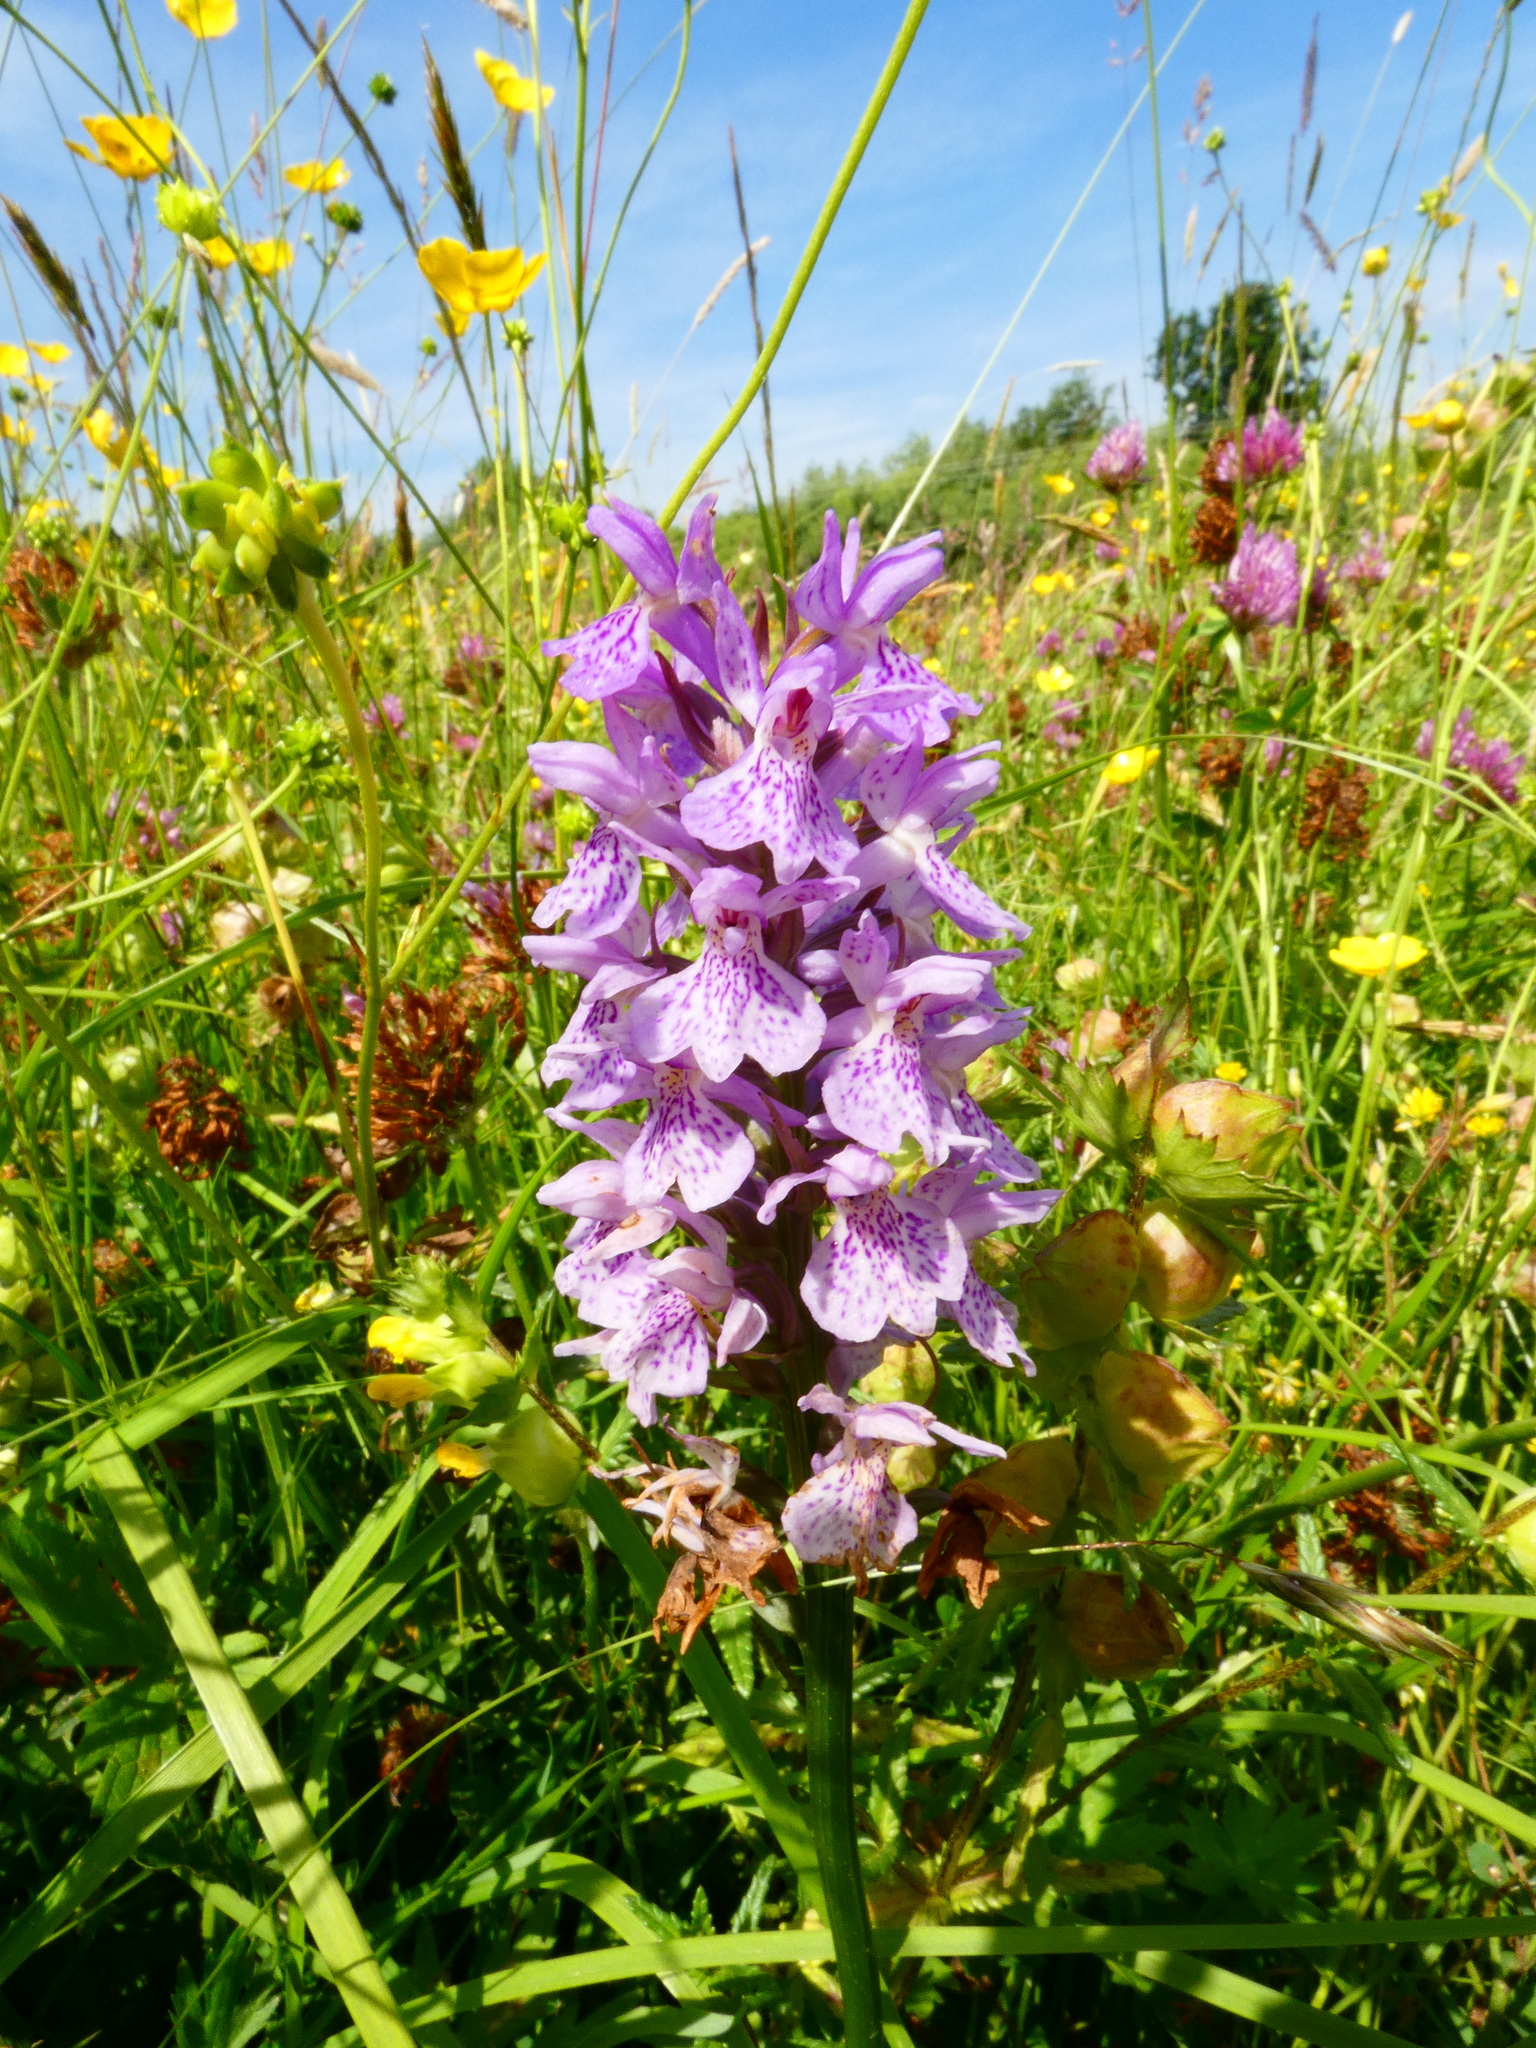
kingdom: Plantae
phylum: Tracheophyta
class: Liliopsida
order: Asparagales
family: Orchidaceae
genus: Dactylorhiza
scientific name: Dactylorhiza maculata
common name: Heath spotted-orchid
